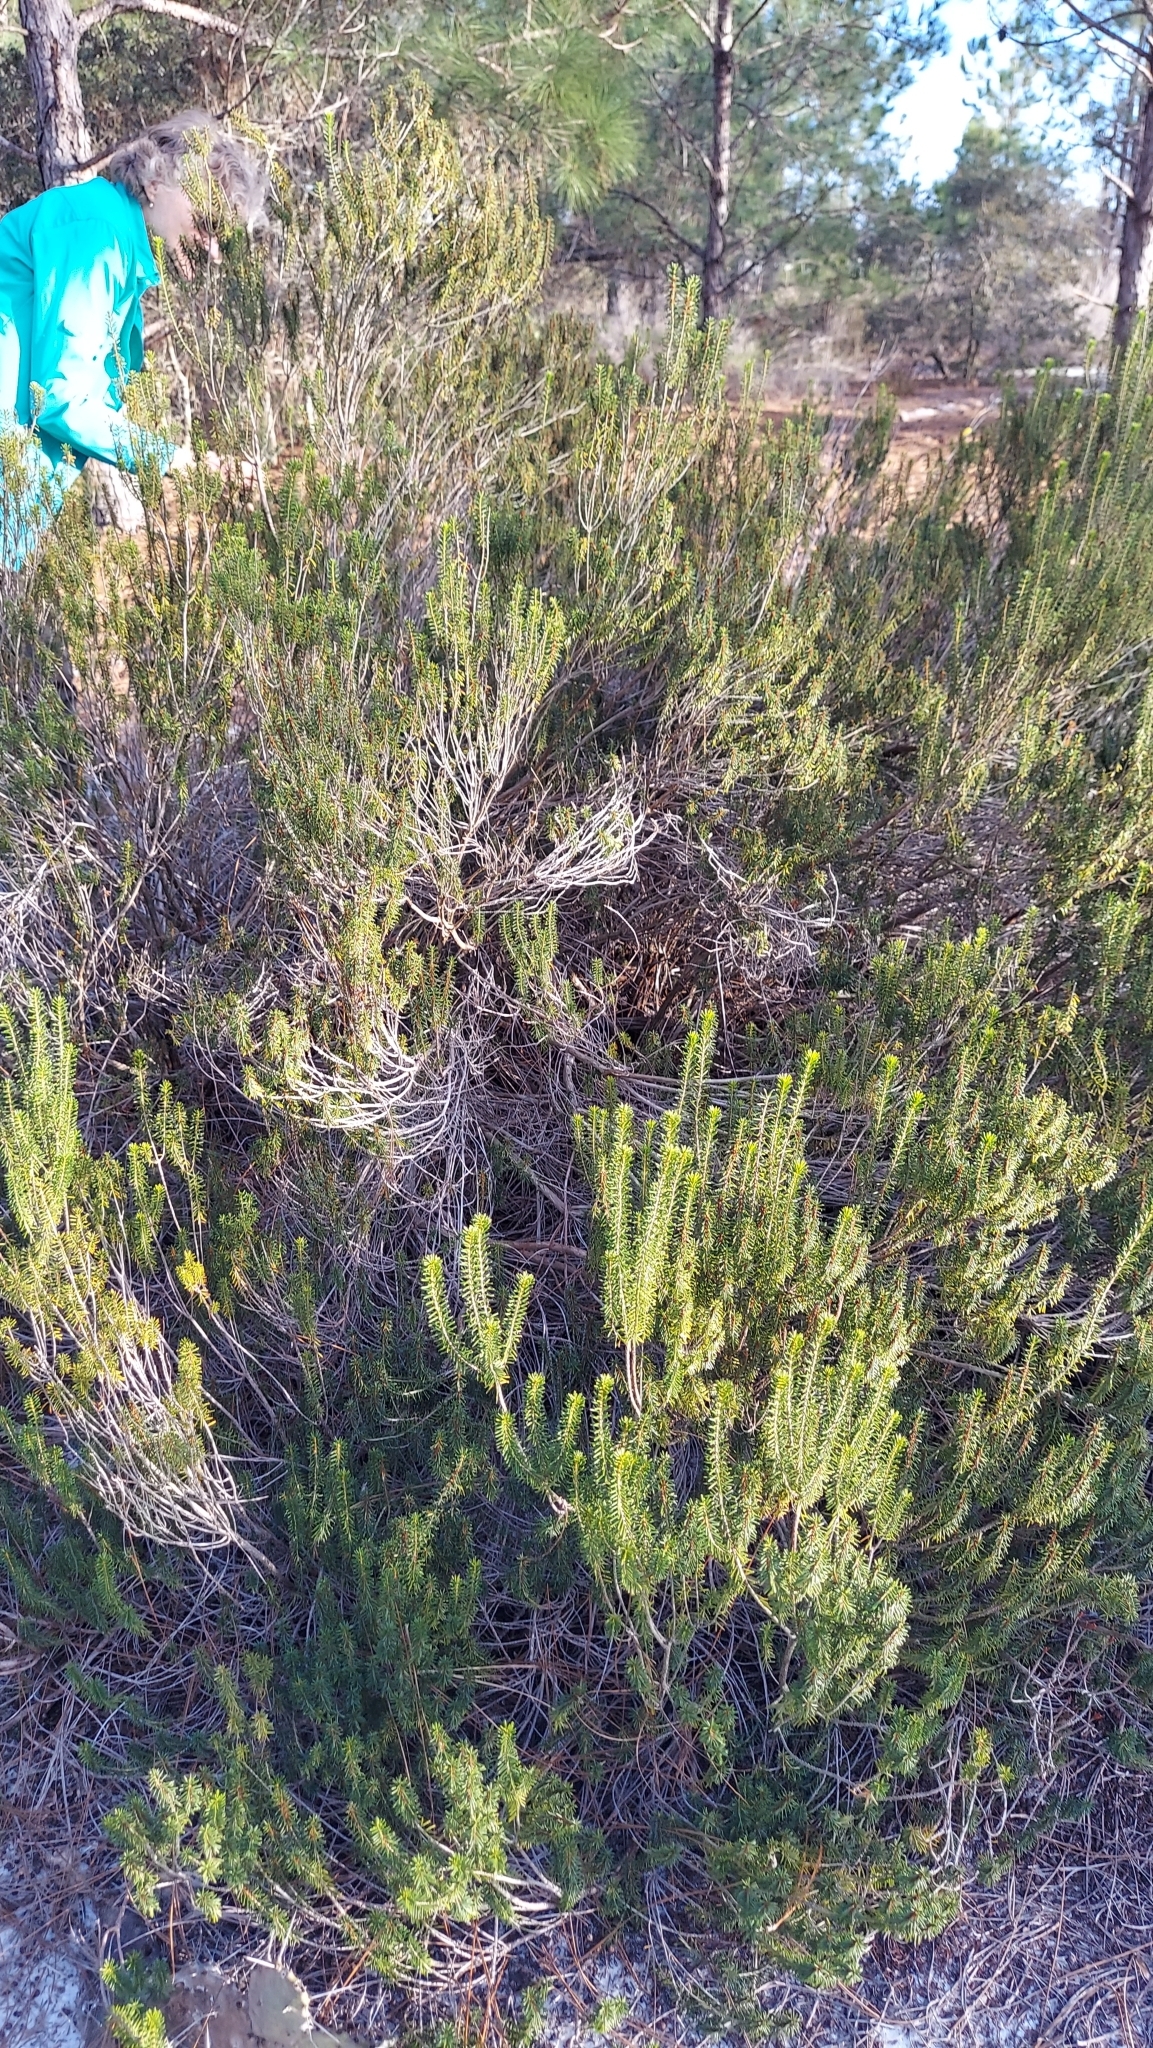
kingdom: Plantae
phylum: Tracheophyta
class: Magnoliopsida
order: Ericales
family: Ericaceae
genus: Ceratiola
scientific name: Ceratiola ericoides
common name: Sandhill-rosemary
